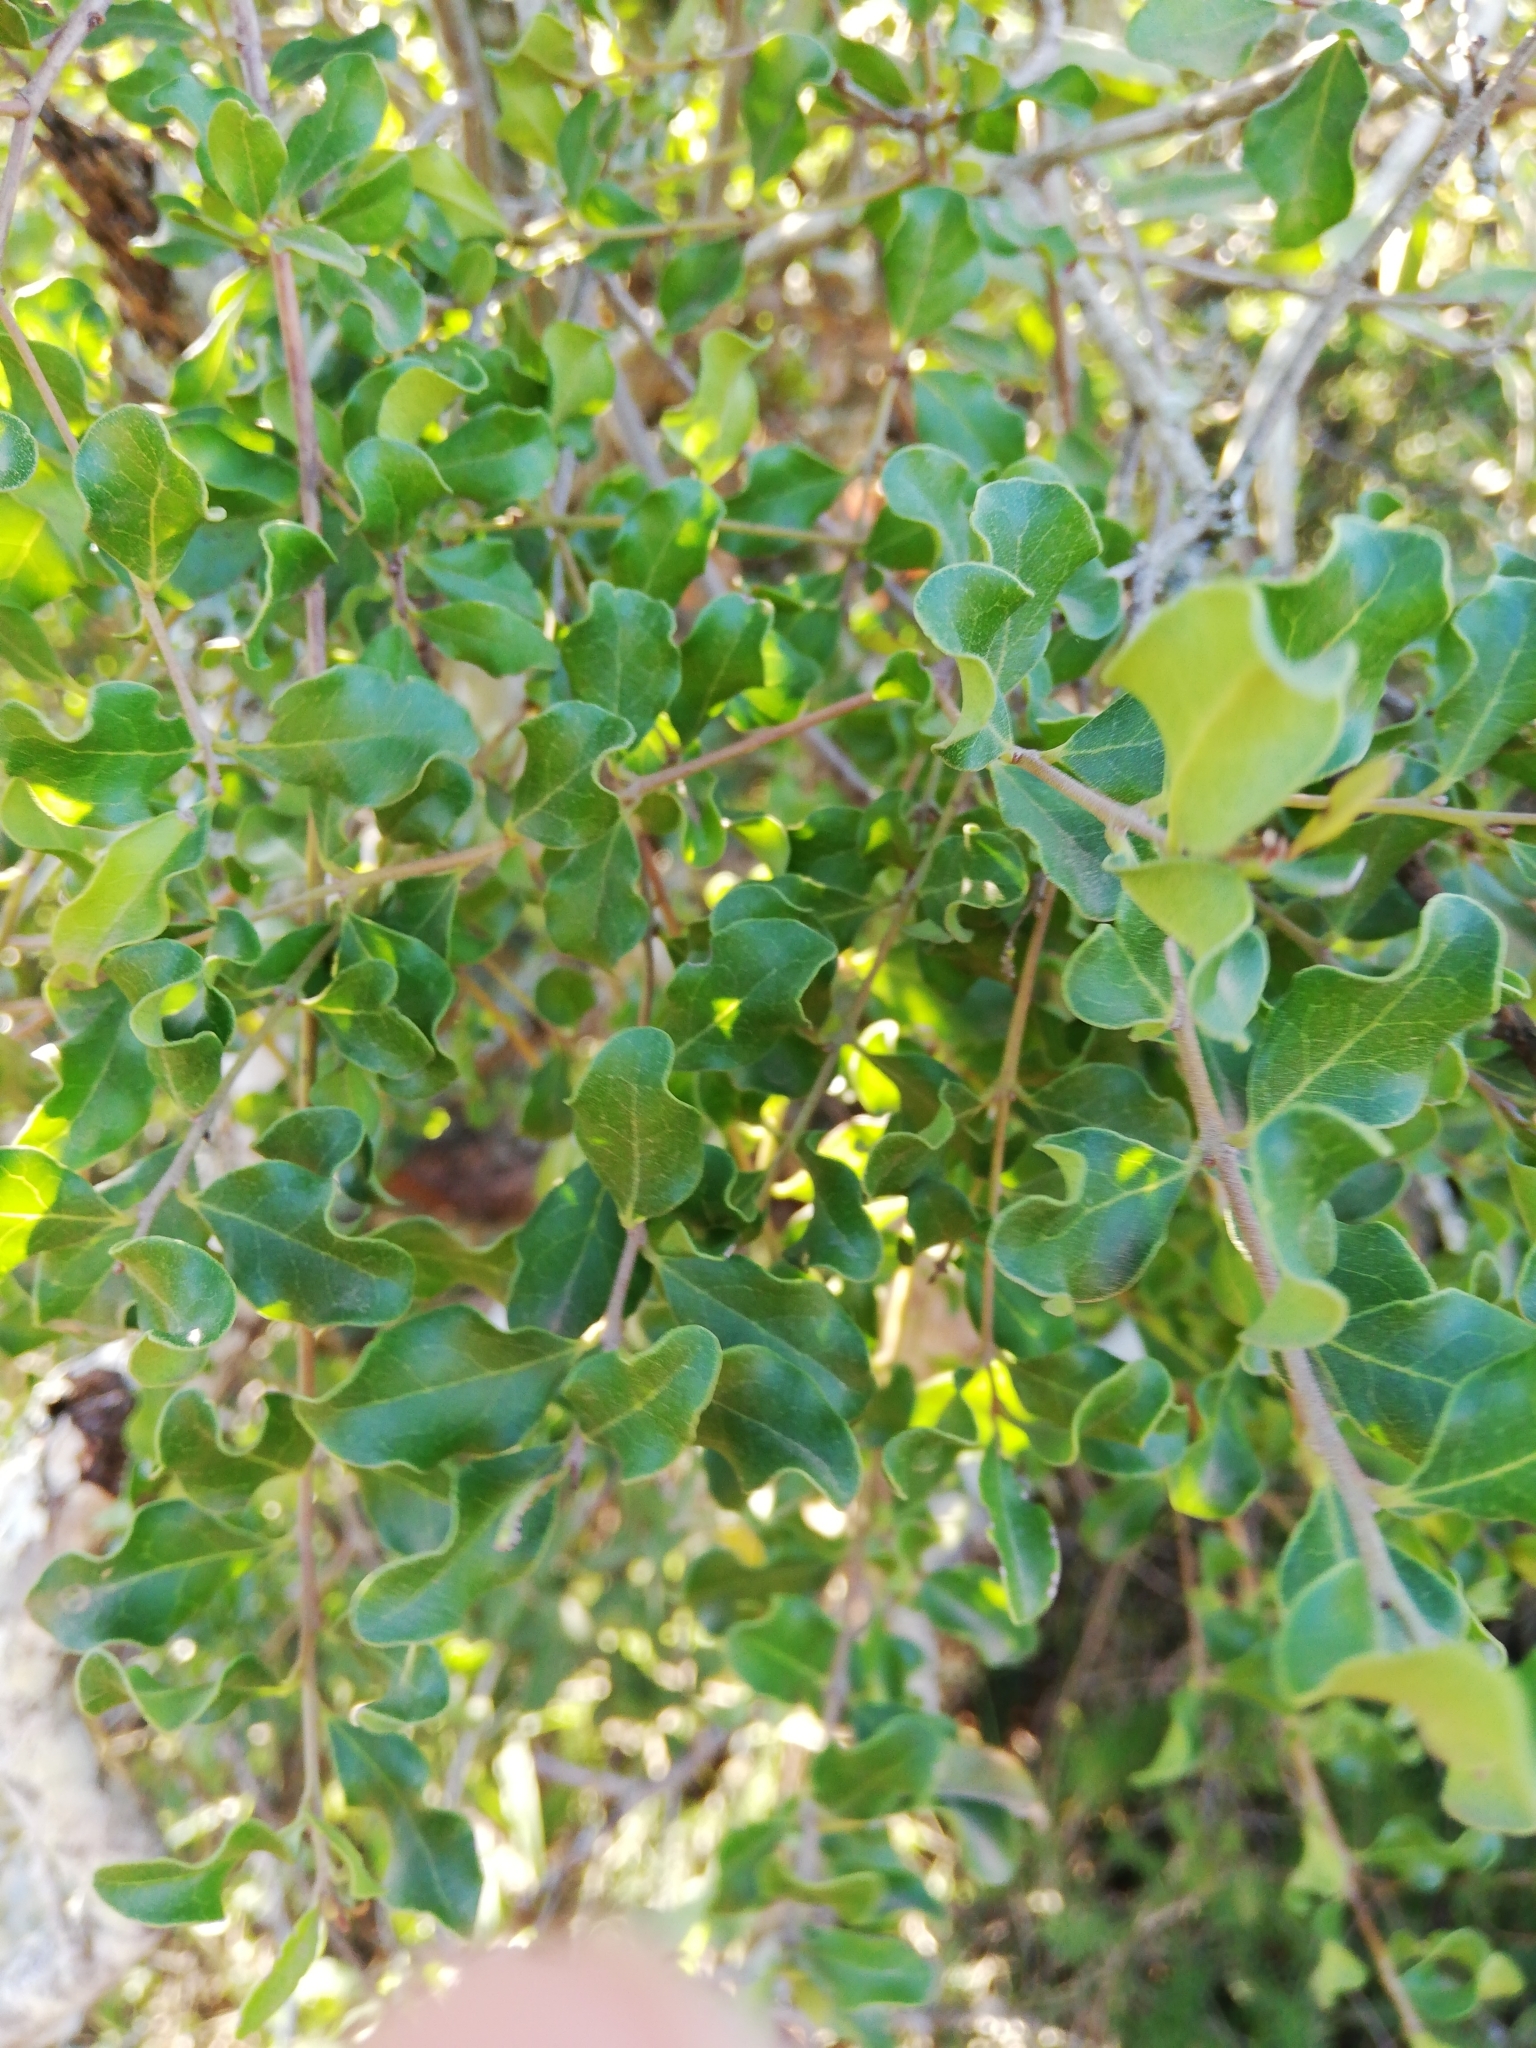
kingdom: Plantae
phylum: Tracheophyta
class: Magnoliopsida
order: Ericales
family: Ebenaceae
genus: Euclea
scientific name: Euclea undulata
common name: Small-leaved guarri
